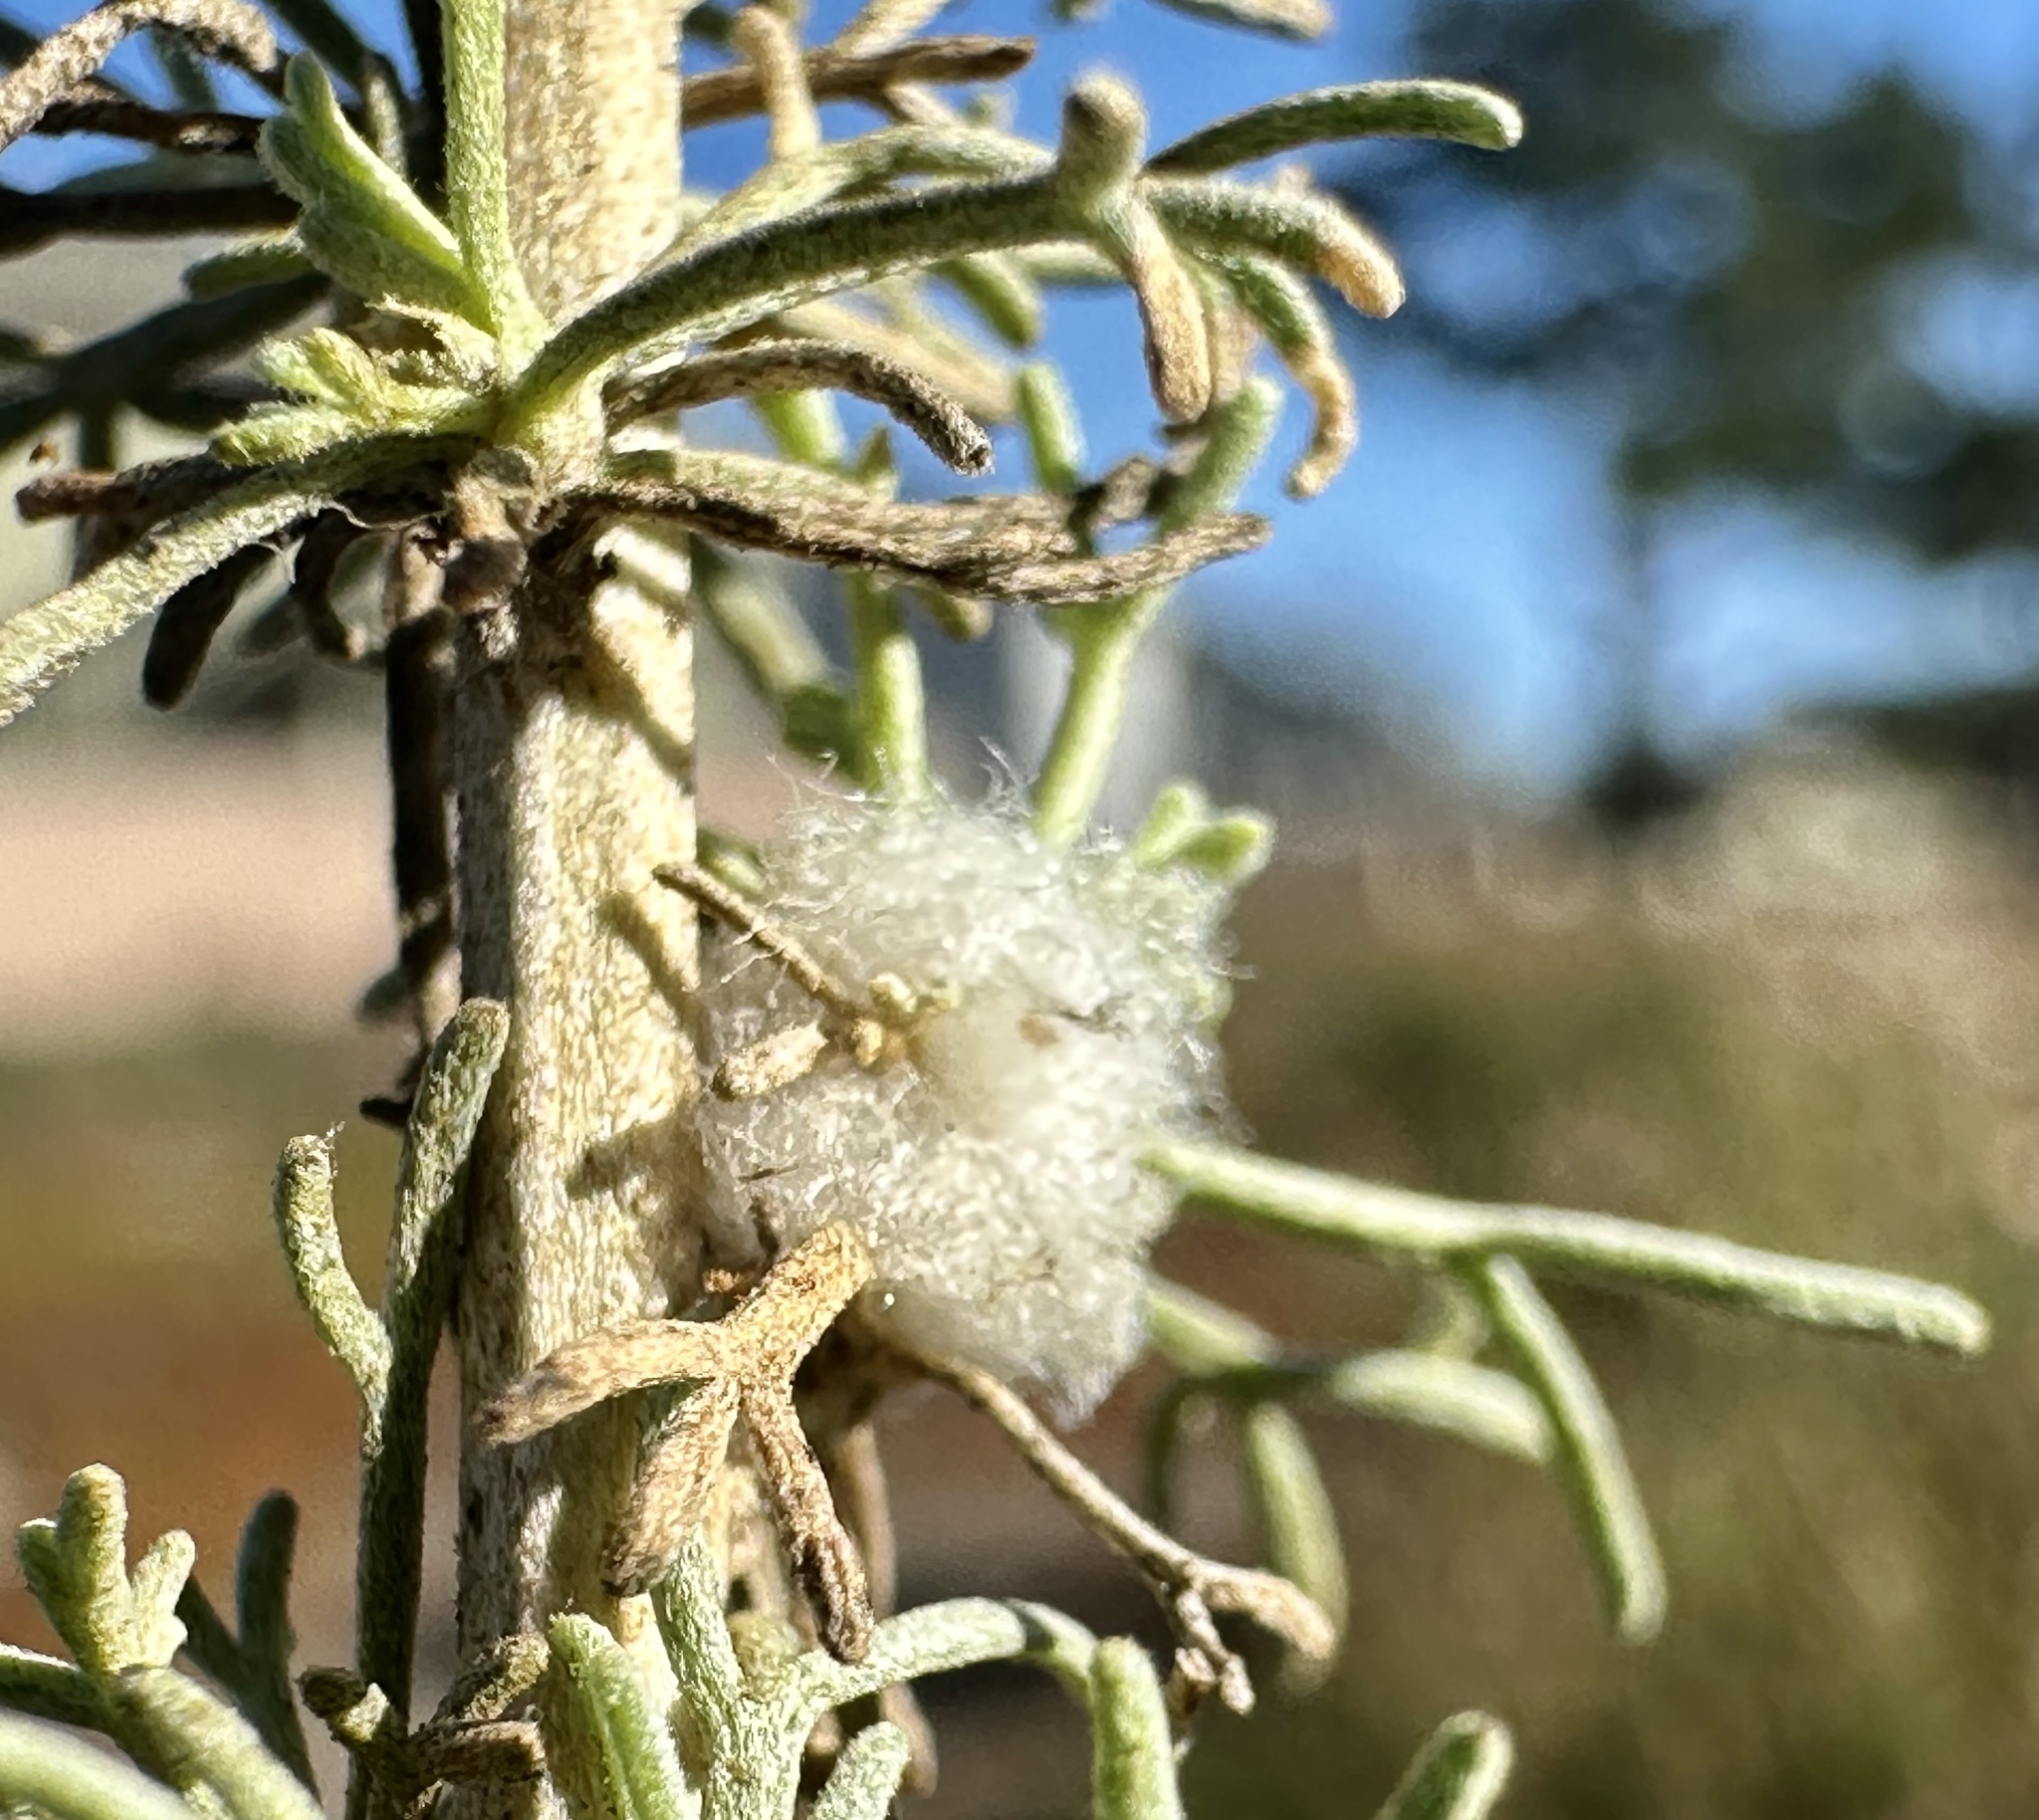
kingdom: Animalia
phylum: Arthropoda
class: Insecta
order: Diptera
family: Cecidomyiidae
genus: Rhopalomyia
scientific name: Rhopalomyia floccosa
